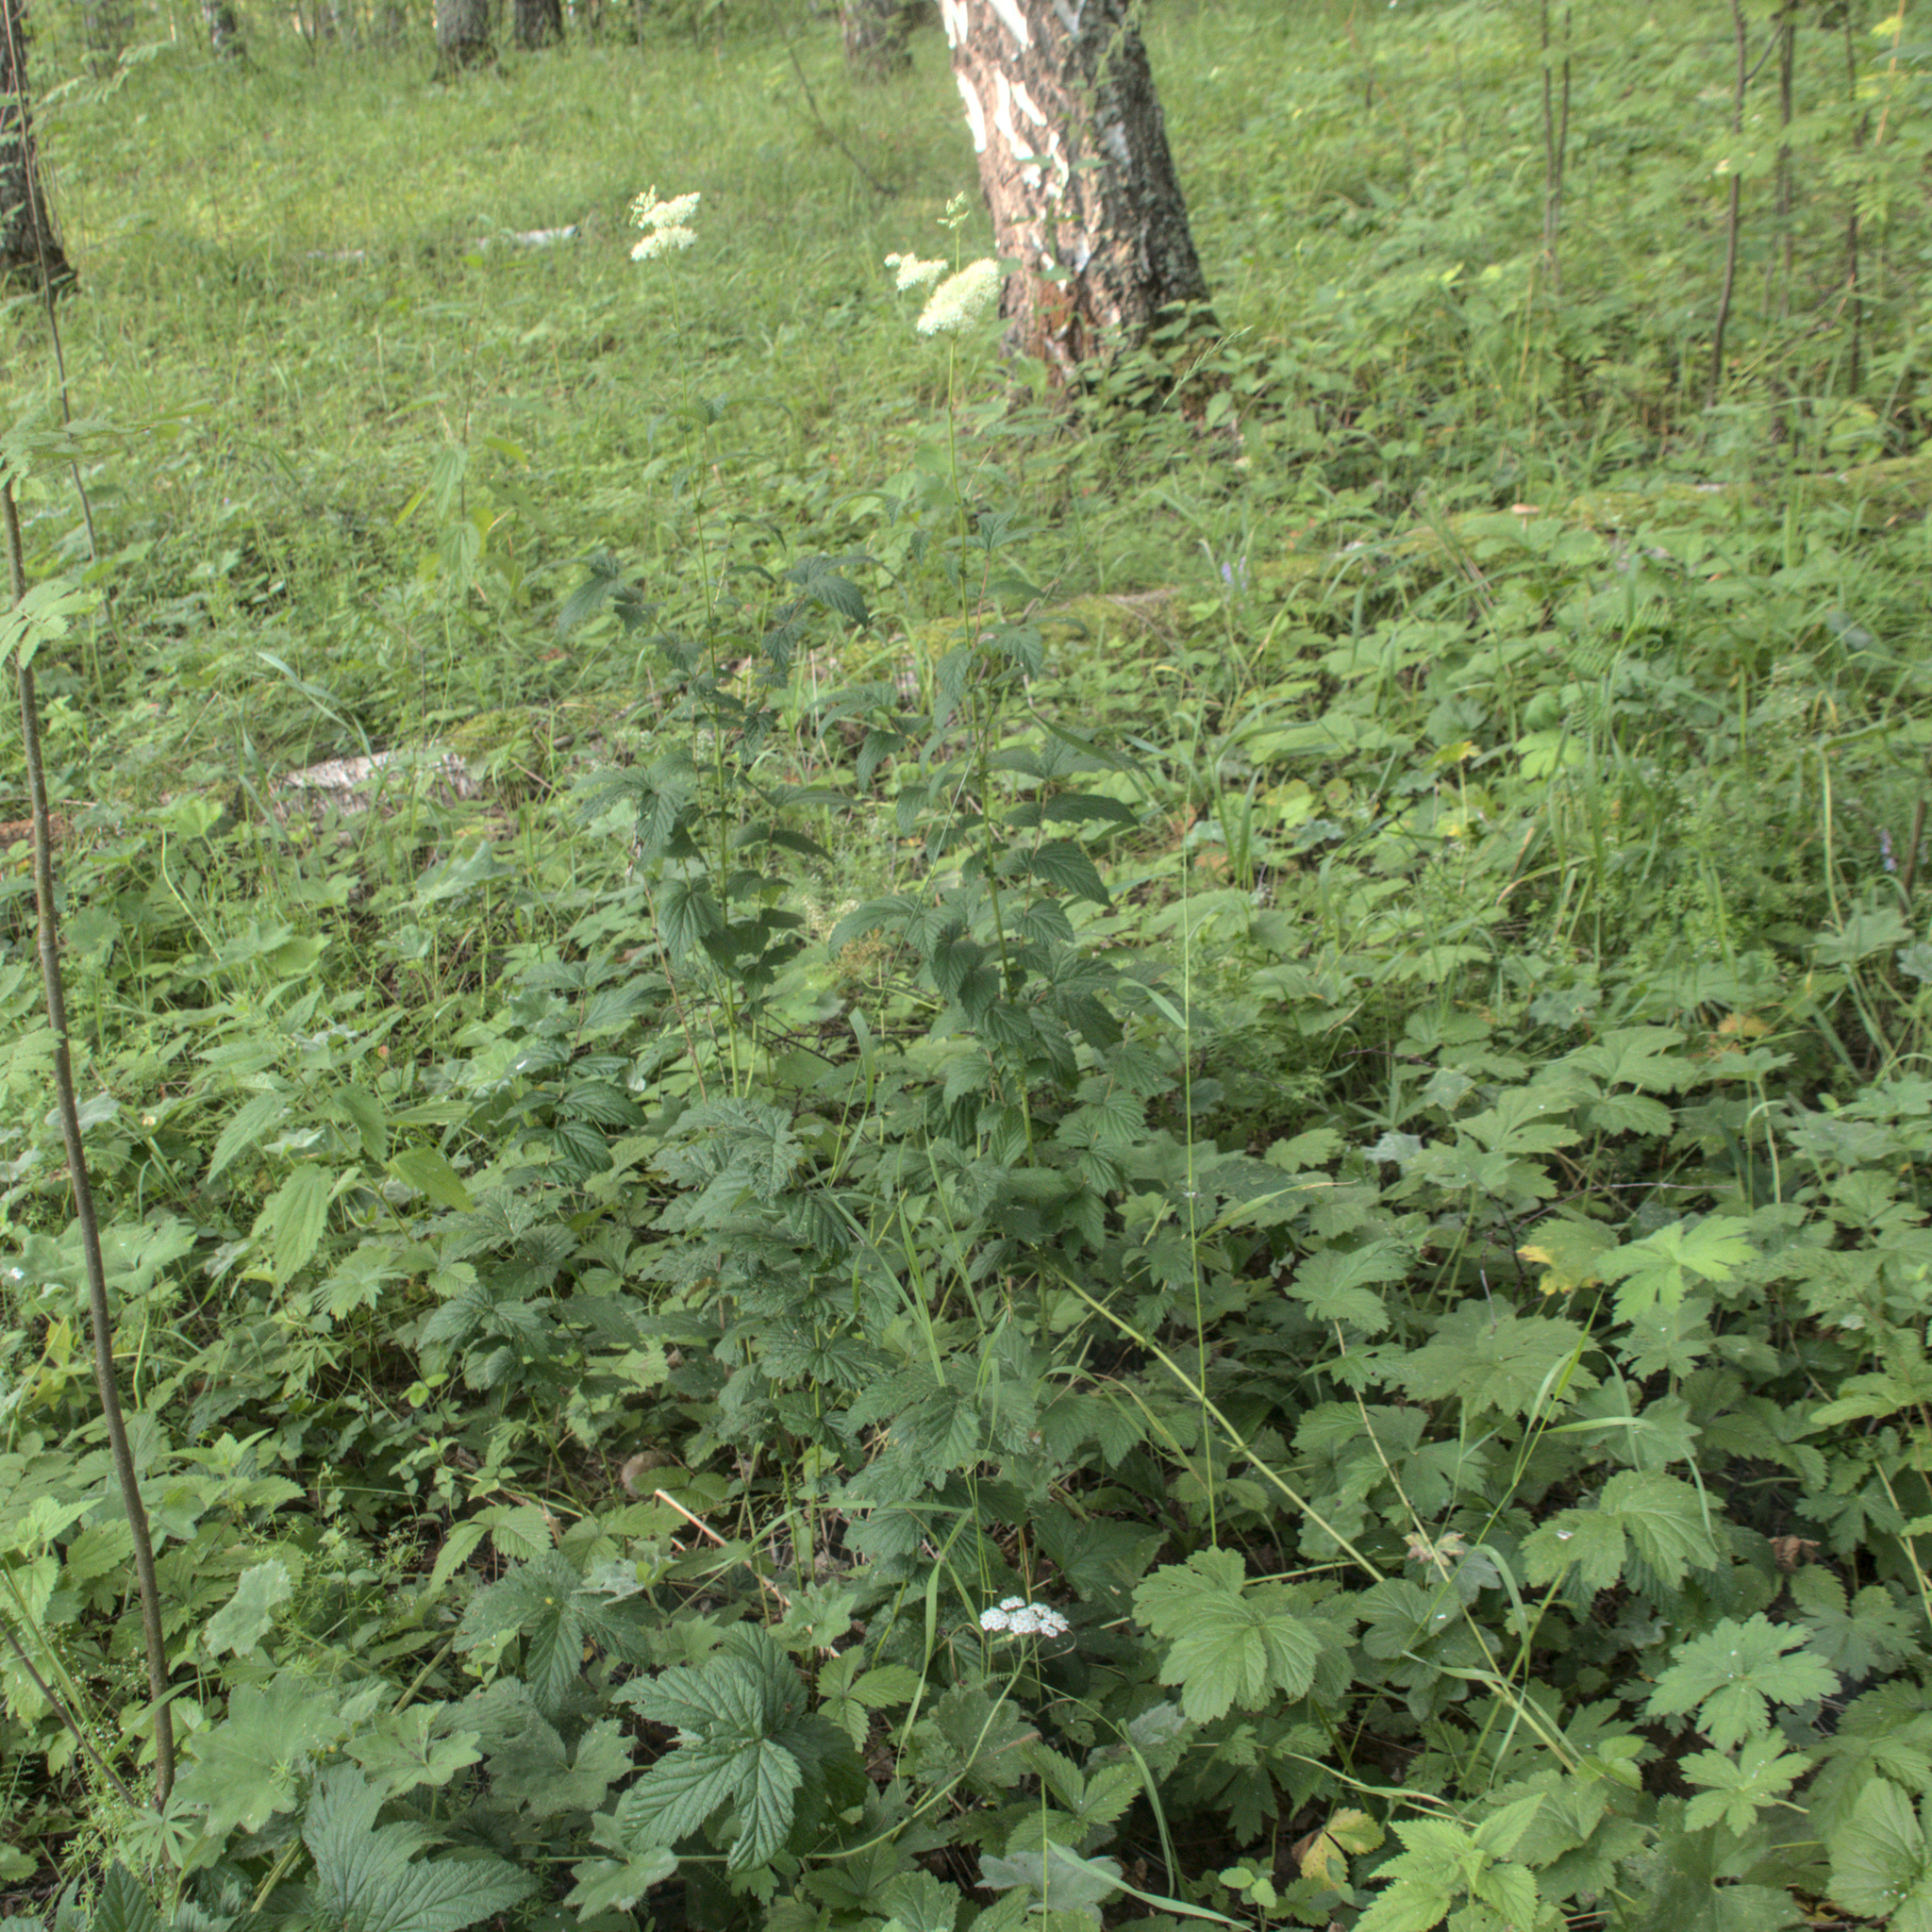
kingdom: Plantae
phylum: Tracheophyta
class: Magnoliopsida
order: Rosales
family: Rosaceae
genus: Filipendula
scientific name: Filipendula ulmaria
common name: Meadowsweet
